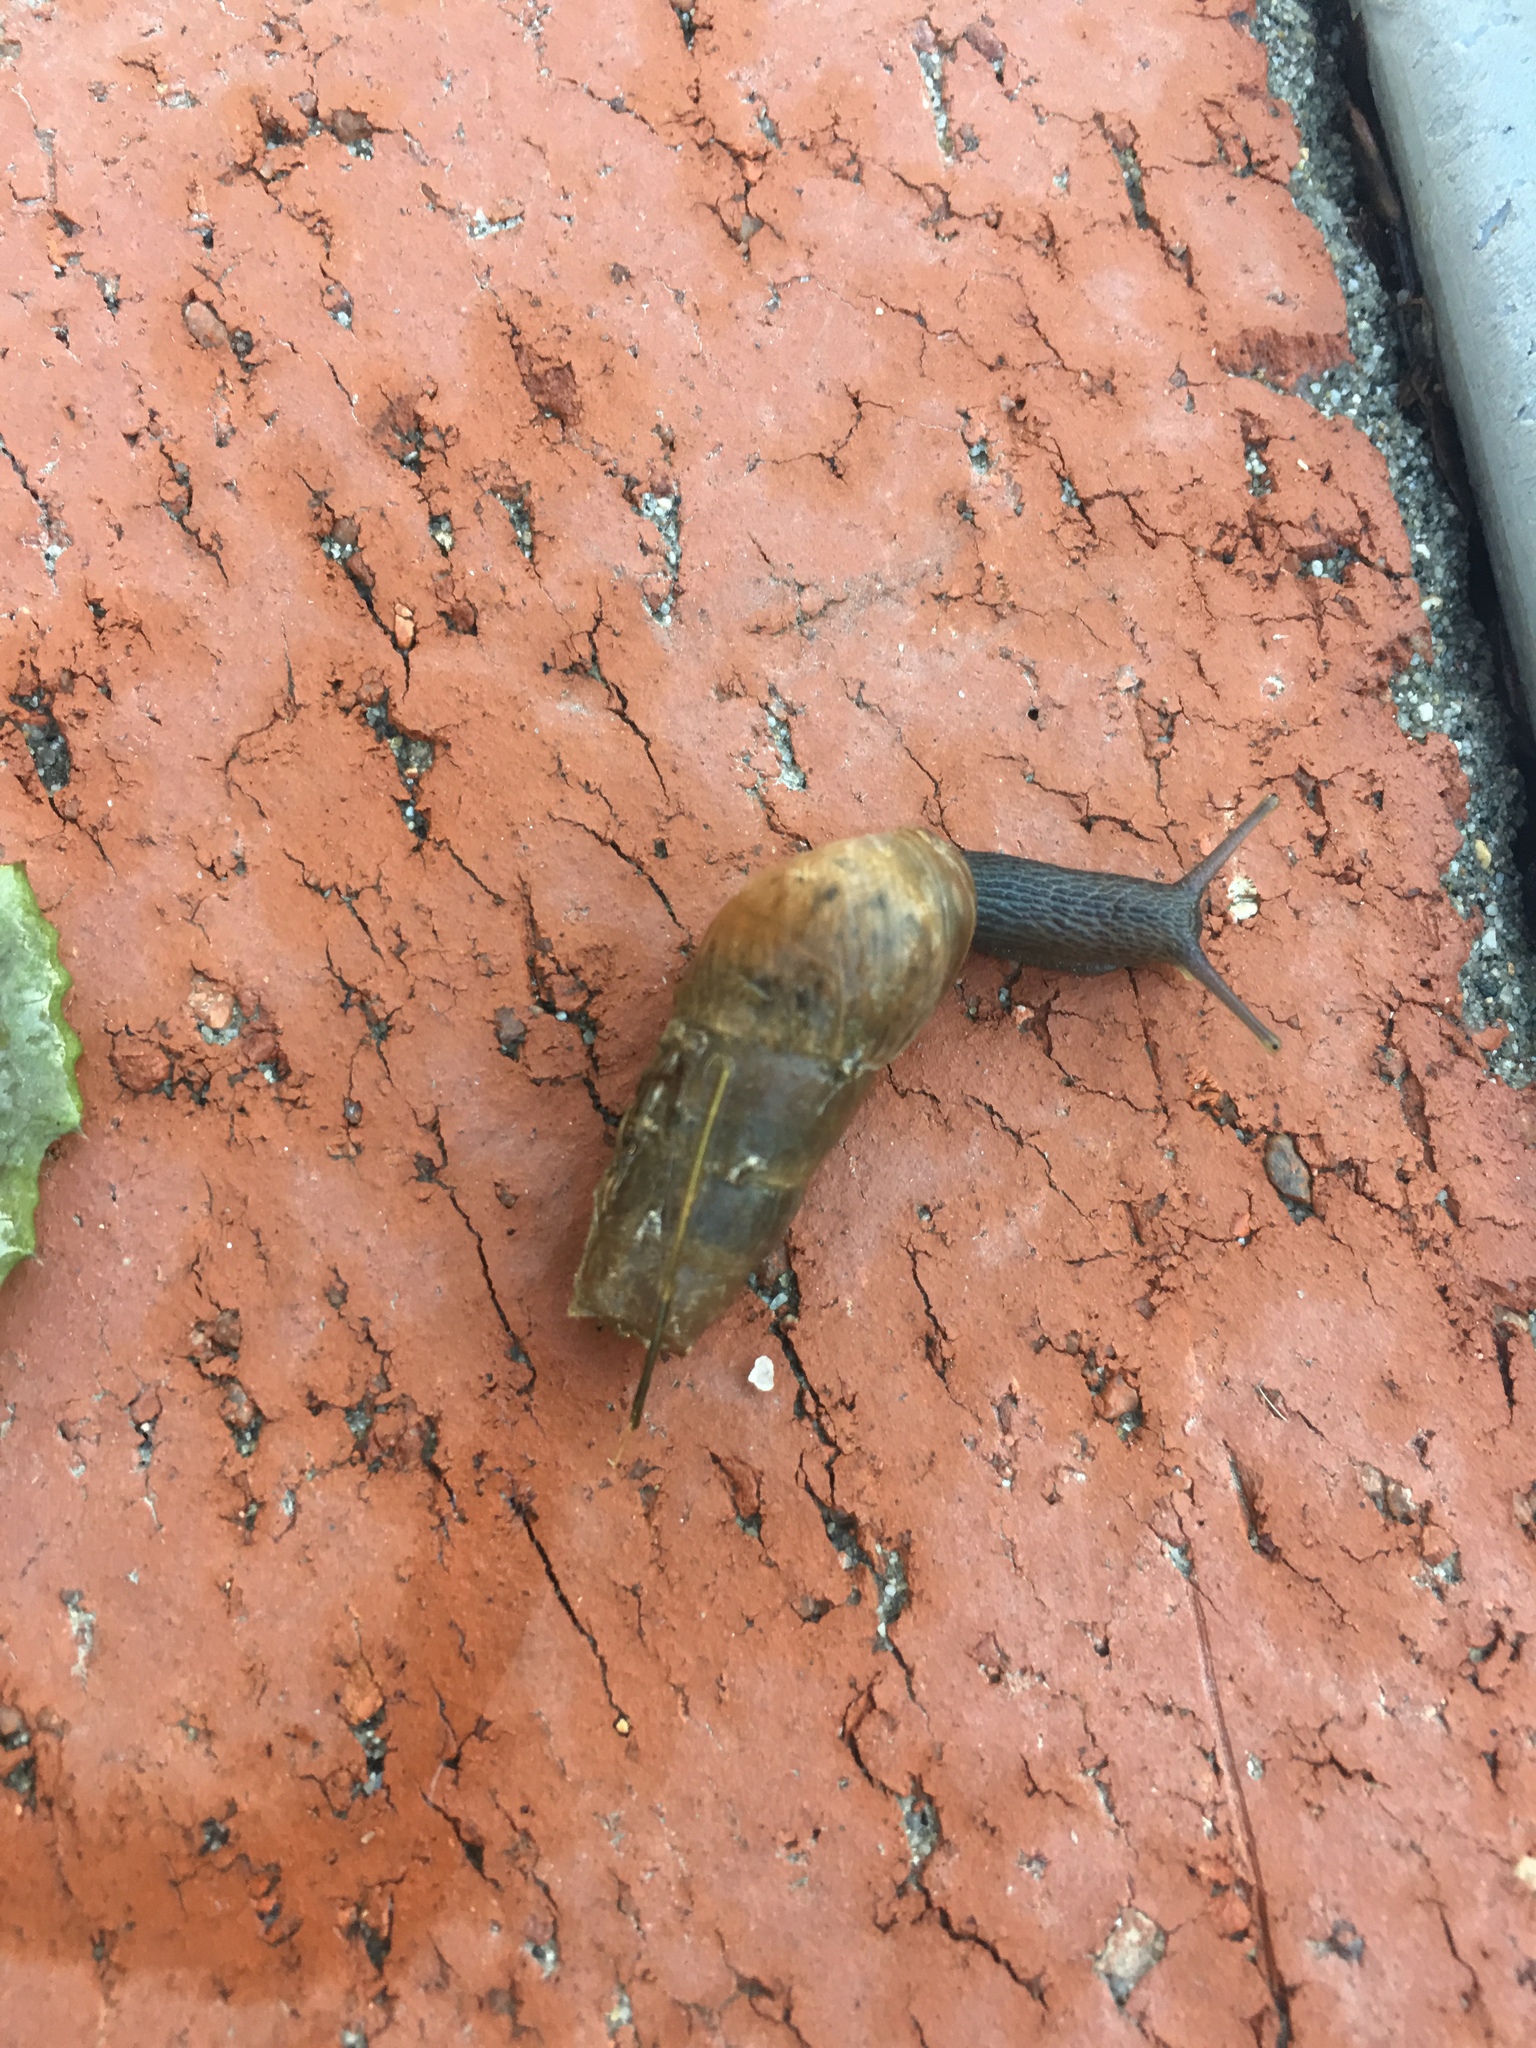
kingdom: Animalia
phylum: Mollusca
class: Gastropoda
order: Stylommatophora
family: Achatinidae
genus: Rumina
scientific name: Rumina decollata
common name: Decollate snail
